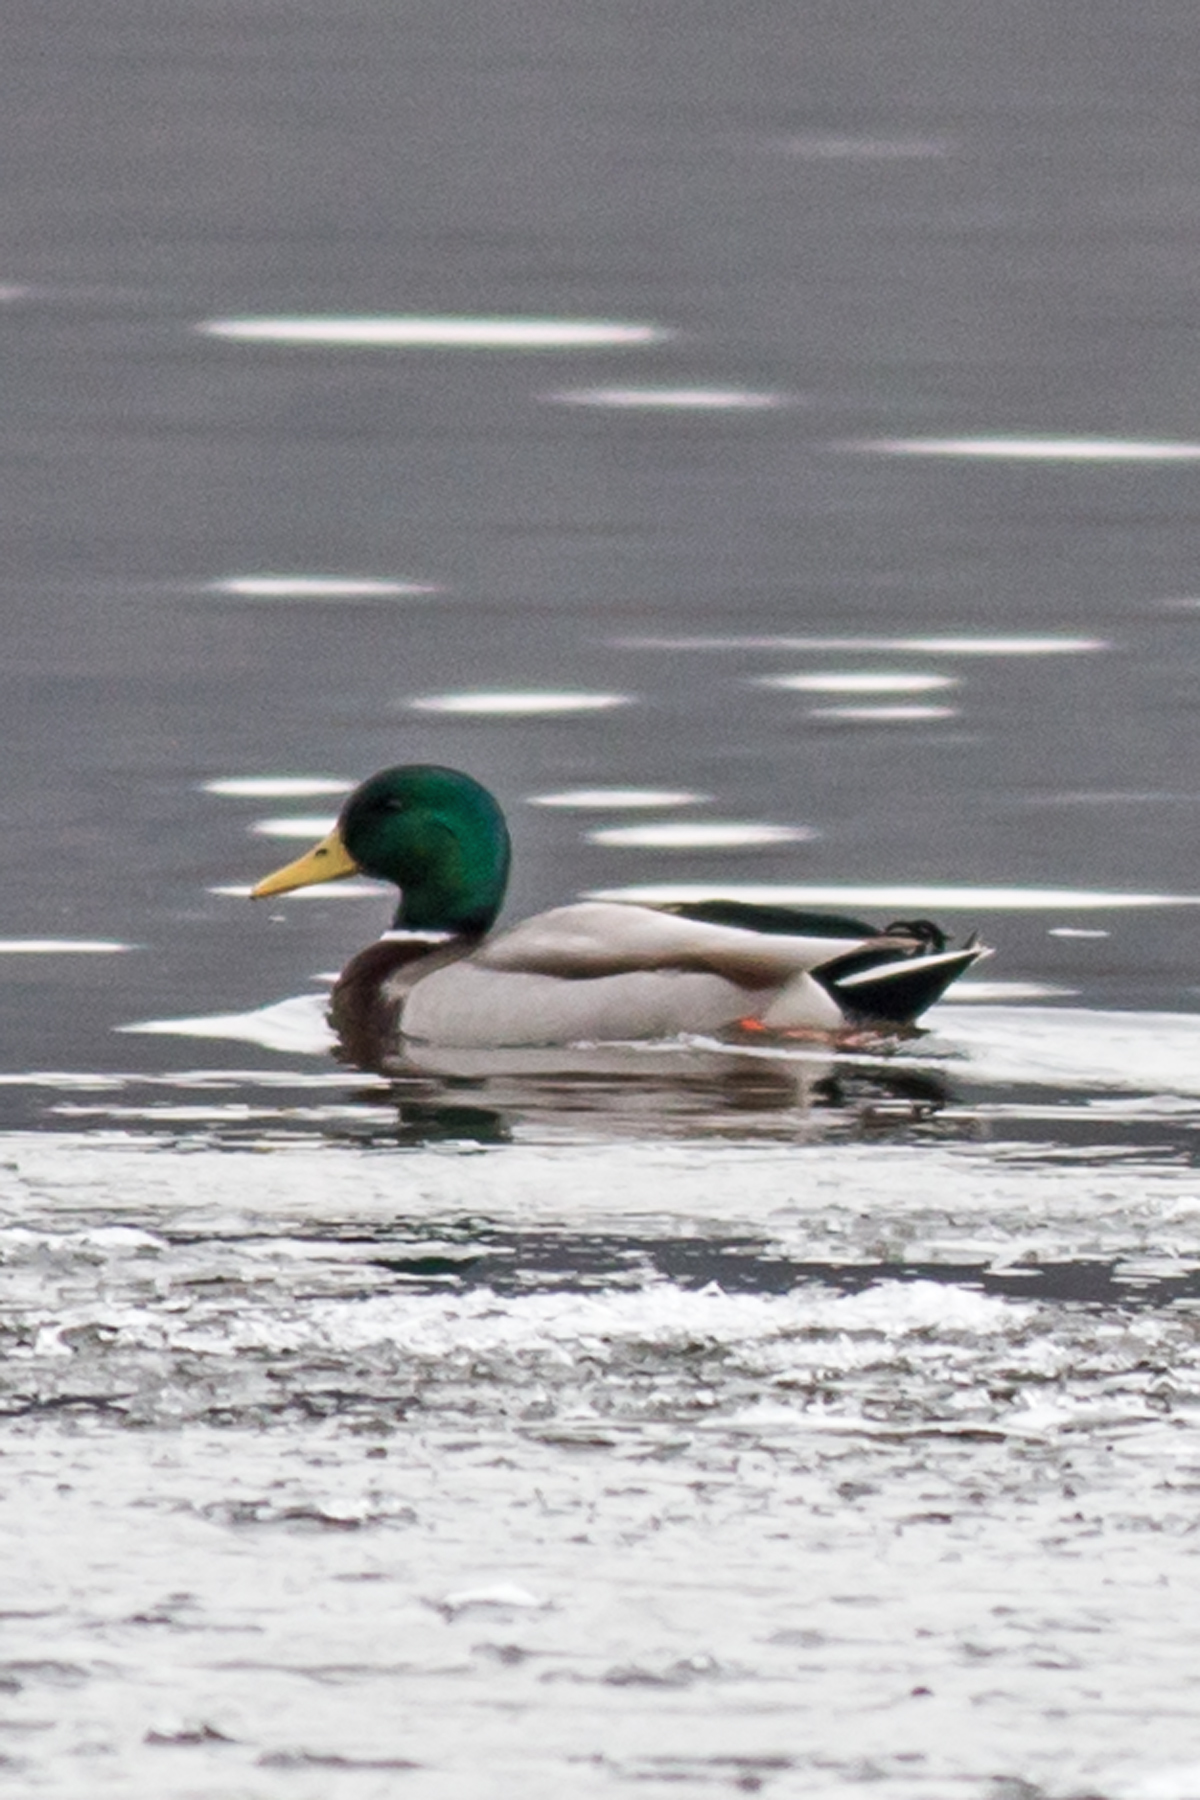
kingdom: Animalia
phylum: Chordata
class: Aves
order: Anseriformes
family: Anatidae
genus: Anas
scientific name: Anas platyrhynchos
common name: Mallard
